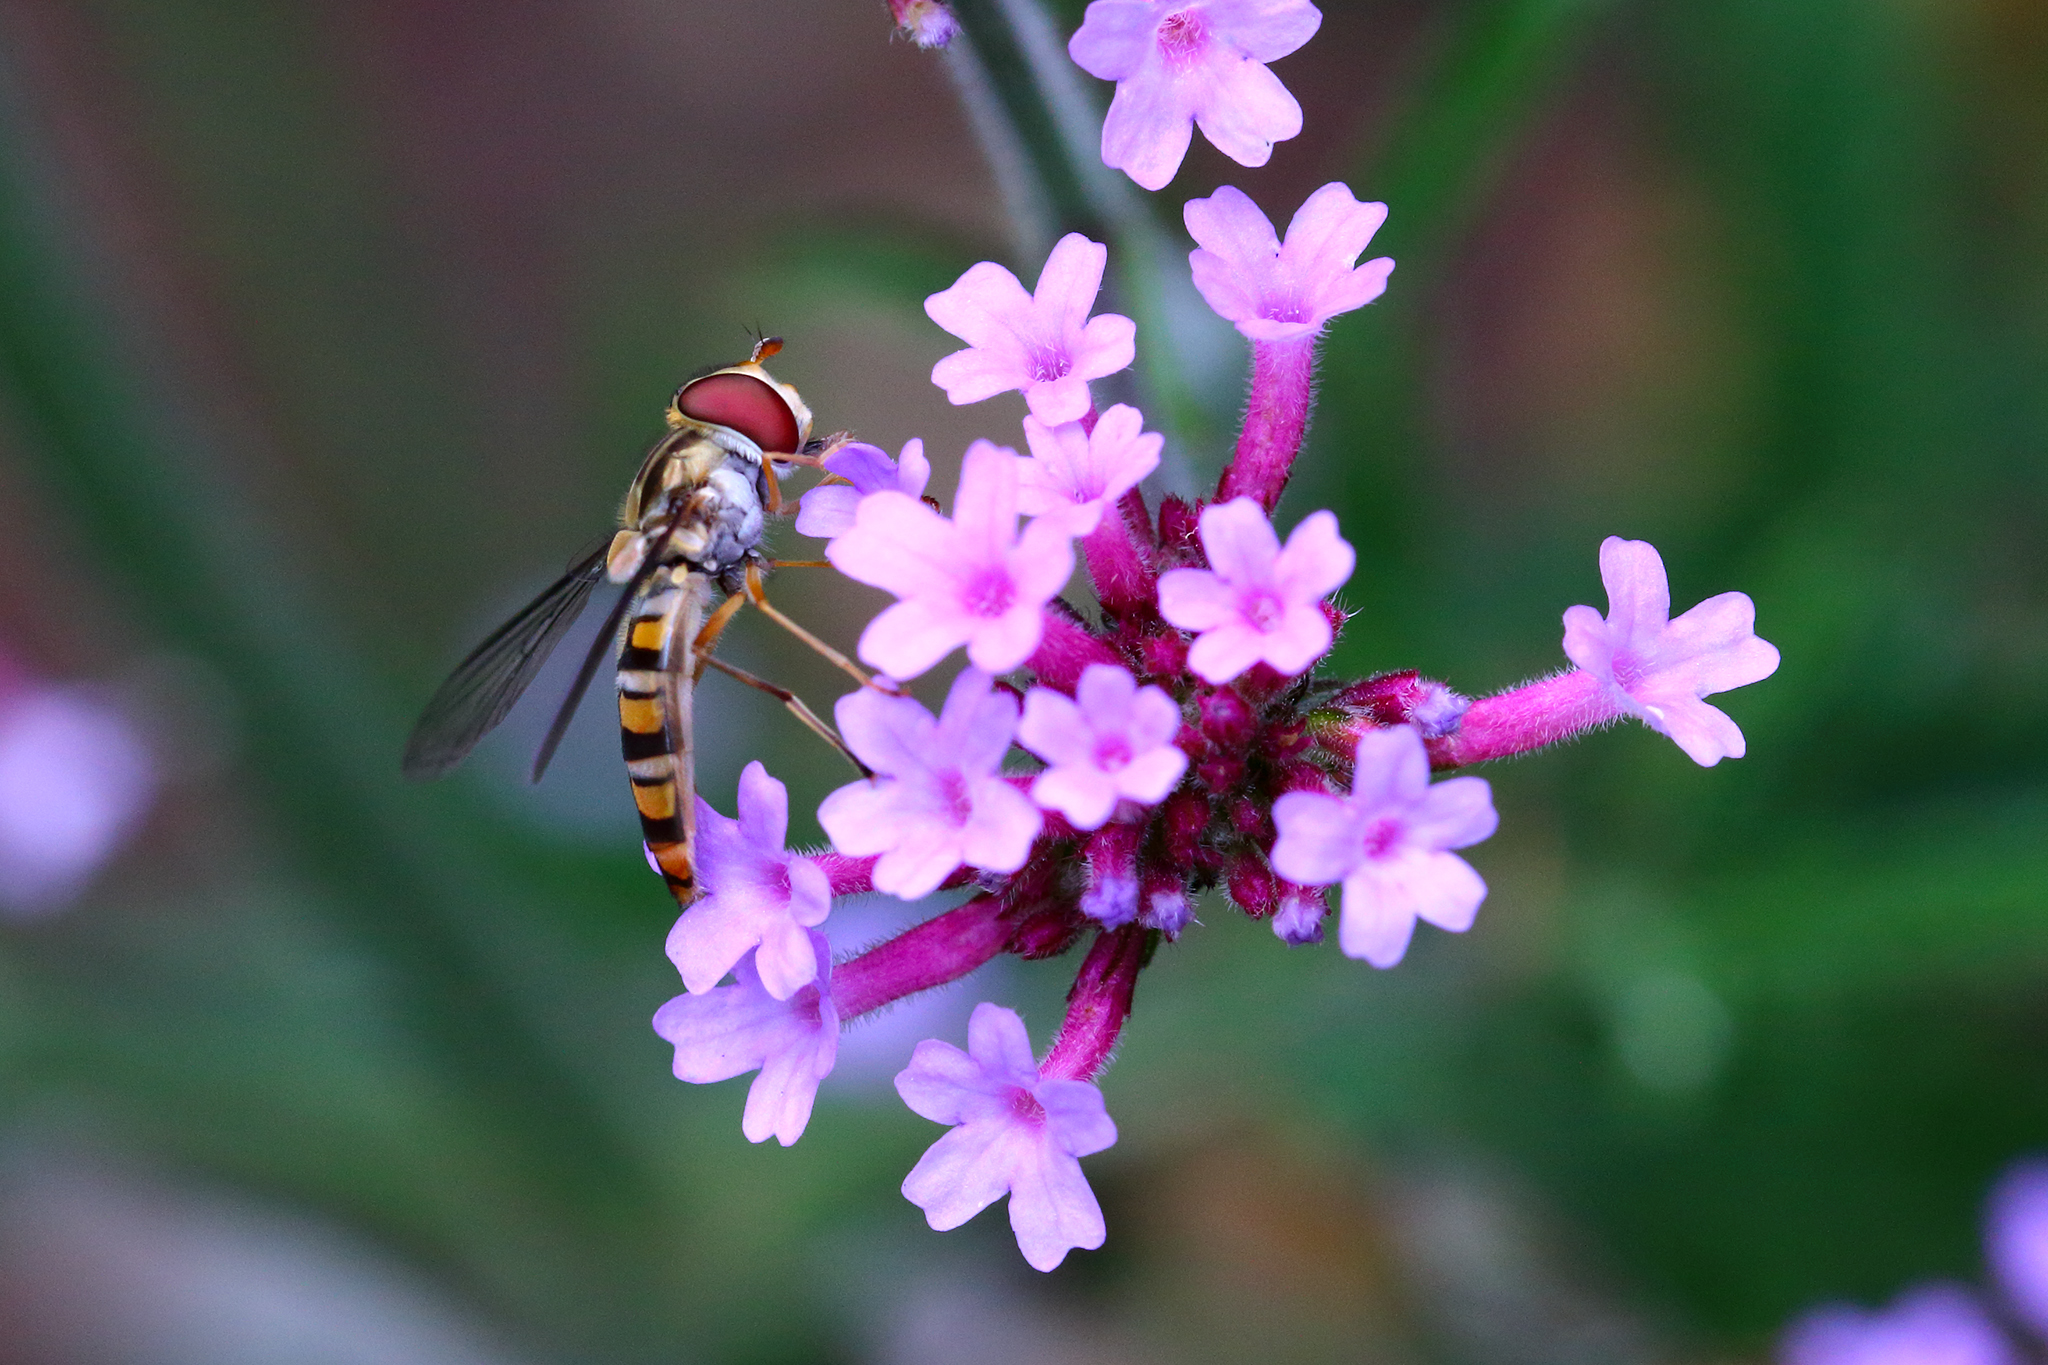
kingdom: Animalia
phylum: Arthropoda
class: Insecta
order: Diptera
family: Syrphidae
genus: Episyrphus
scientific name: Episyrphus balteatus
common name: Marmalade hoverfly
